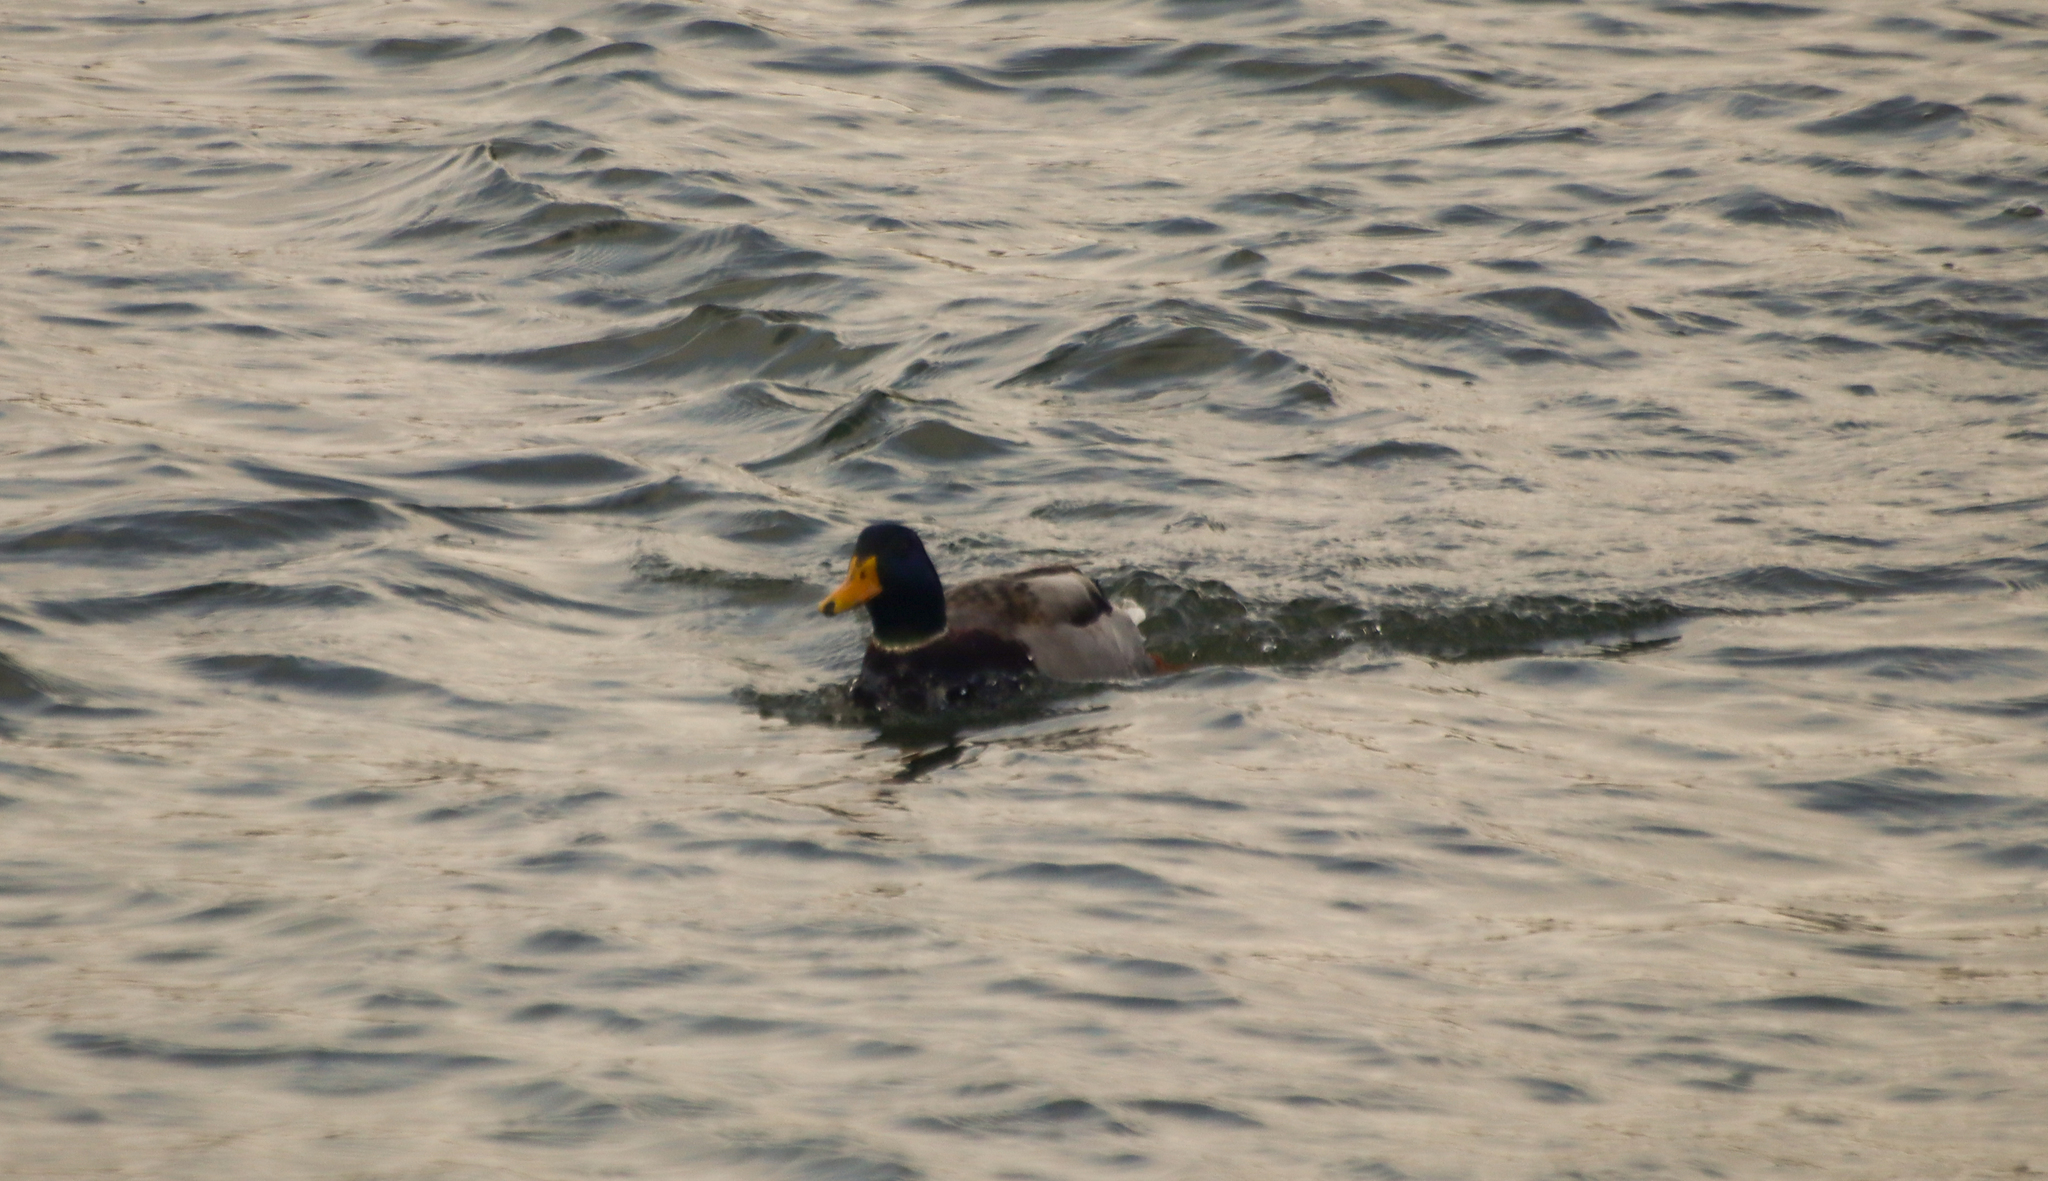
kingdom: Animalia
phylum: Chordata
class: Aves
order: Anseriformes
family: Anatidae
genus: Anas
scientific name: Anas platyrhynchos
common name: Mallard
